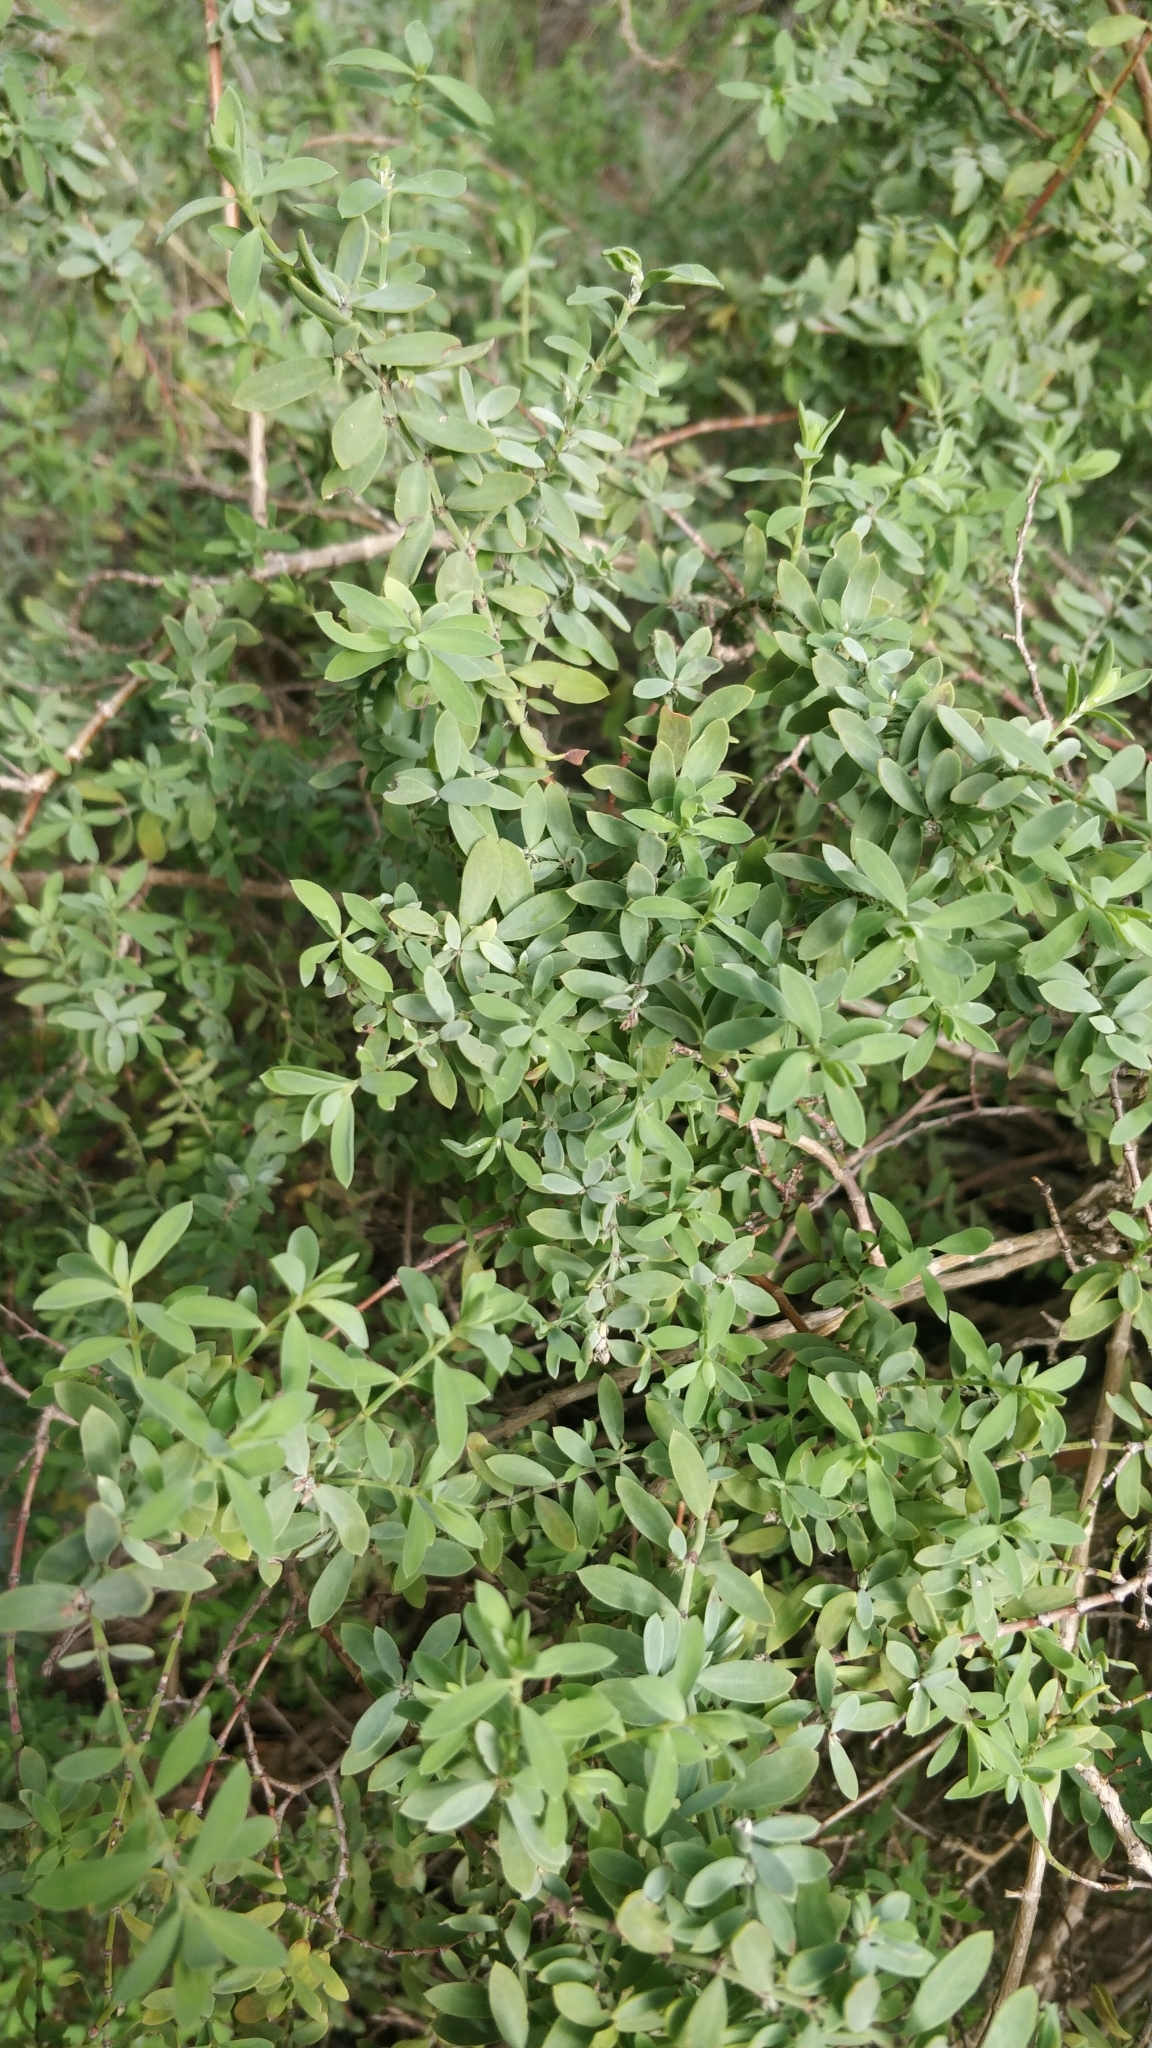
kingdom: Plantae
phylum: Tracheophyta
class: Magnoliopsida
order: Caryophyllales
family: Caryophyllaceae
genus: Paronychia
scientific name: Paronychia canariensis
